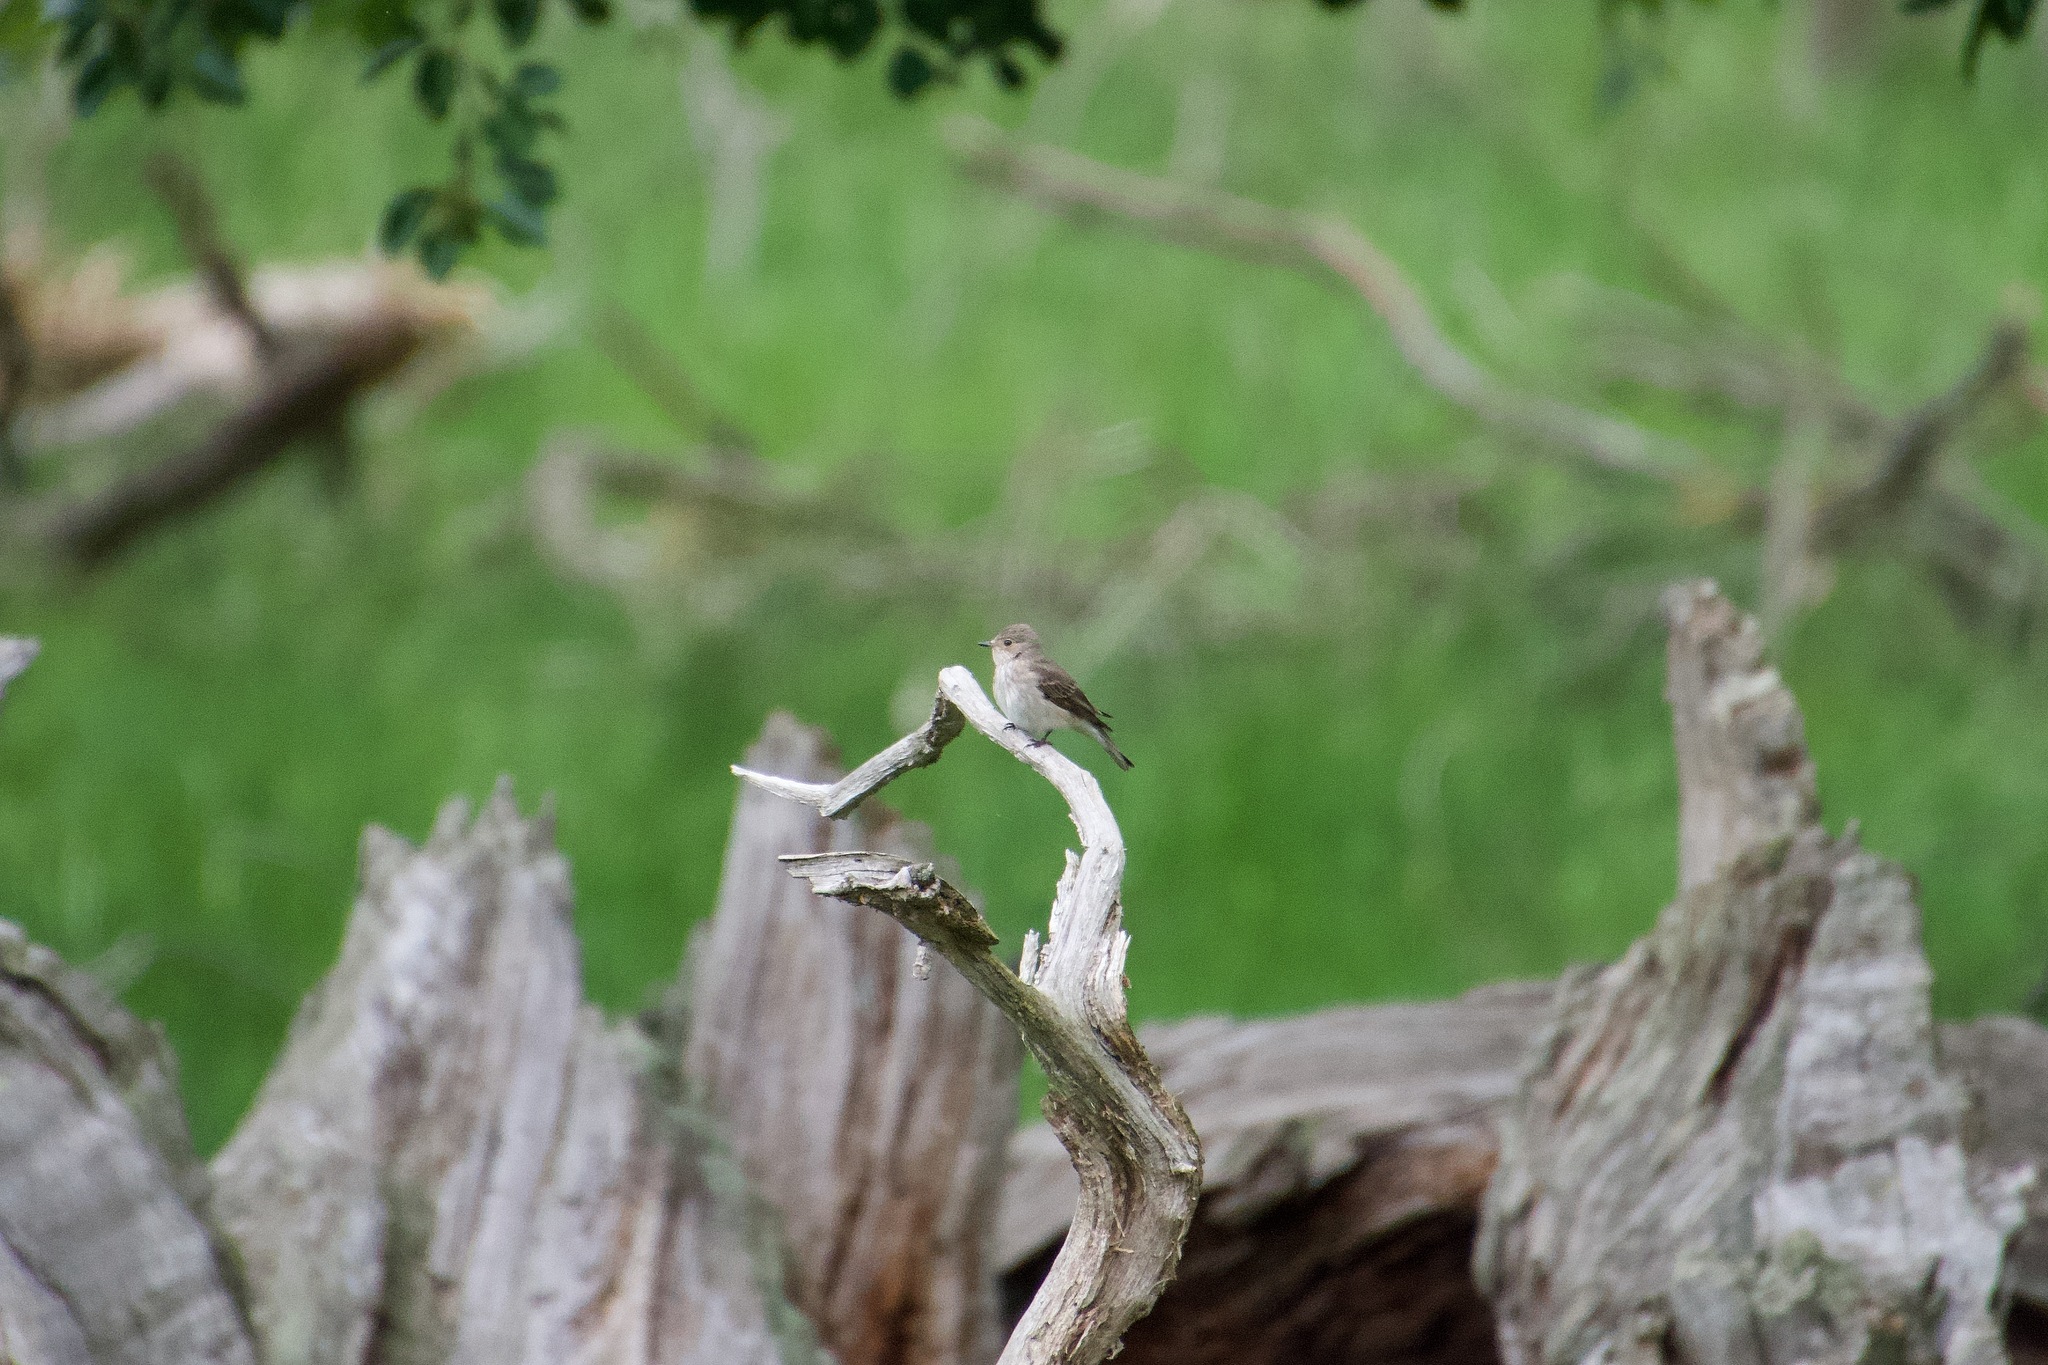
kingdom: Animalia
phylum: Chordata
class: Aves
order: Passeriformes
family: Muscicapidae
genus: Muscicapa
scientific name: Muscicapa striata
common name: Spotted flycatcher
